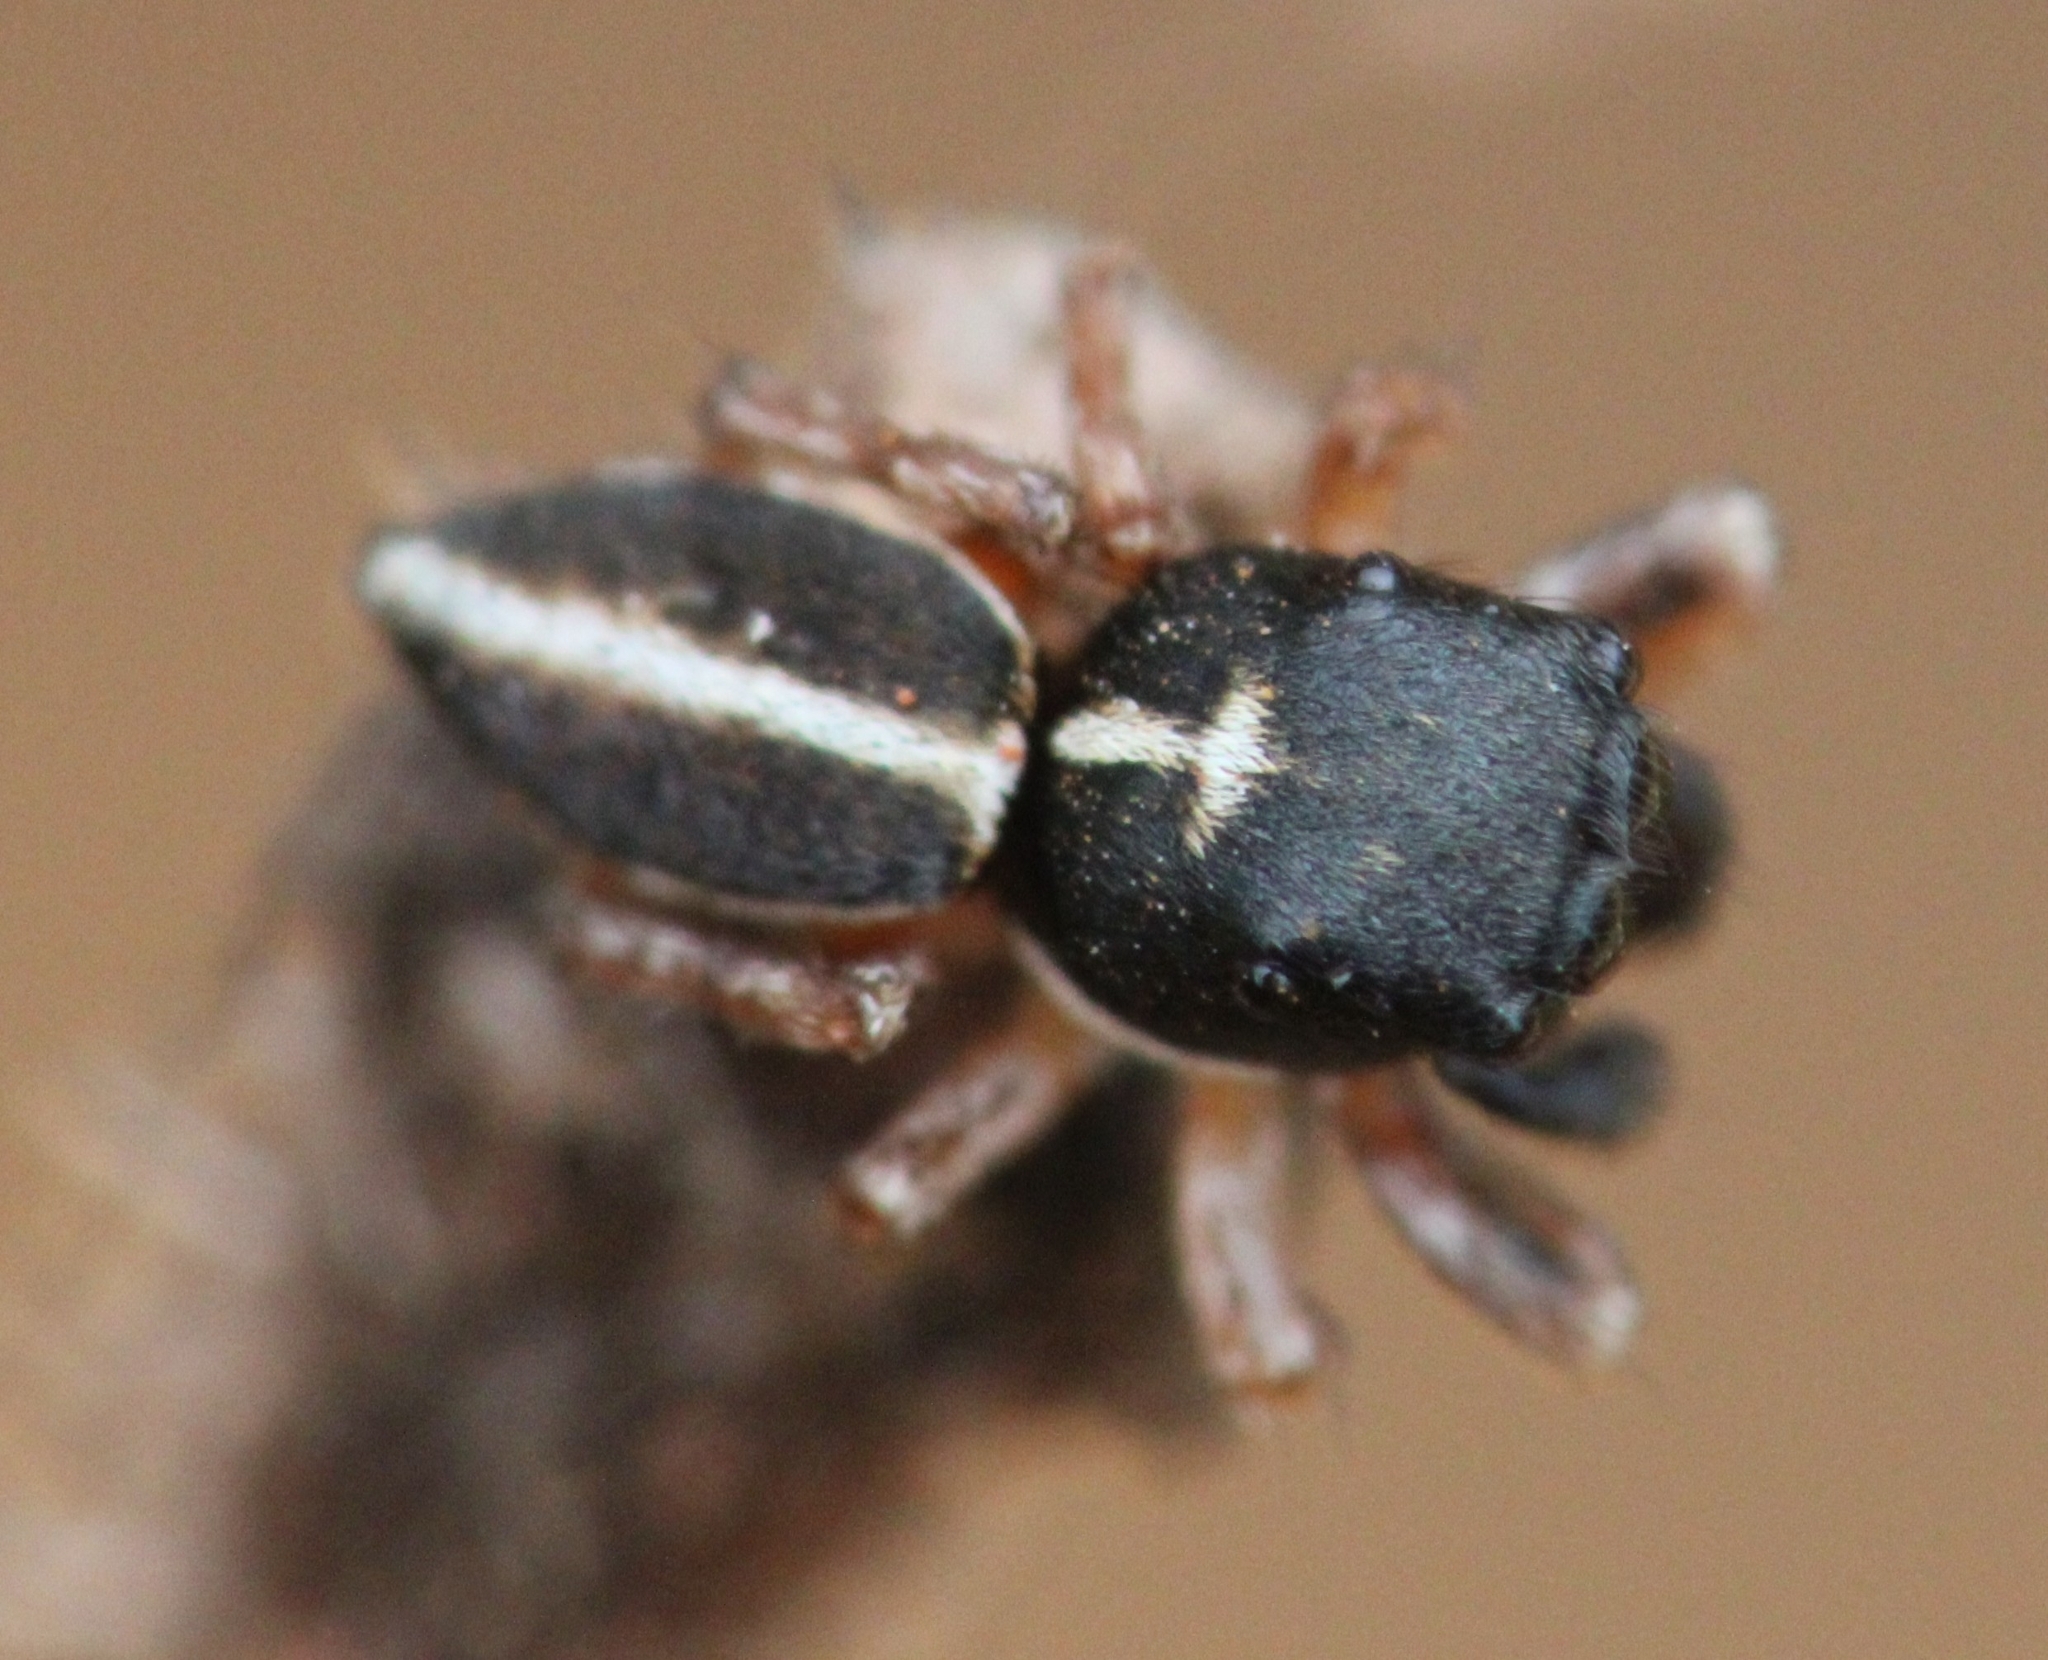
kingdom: Animalia
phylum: Arthropoda
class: Arachnida
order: Araneae
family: Salticidae
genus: Heliophanus
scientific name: Heliophanus
